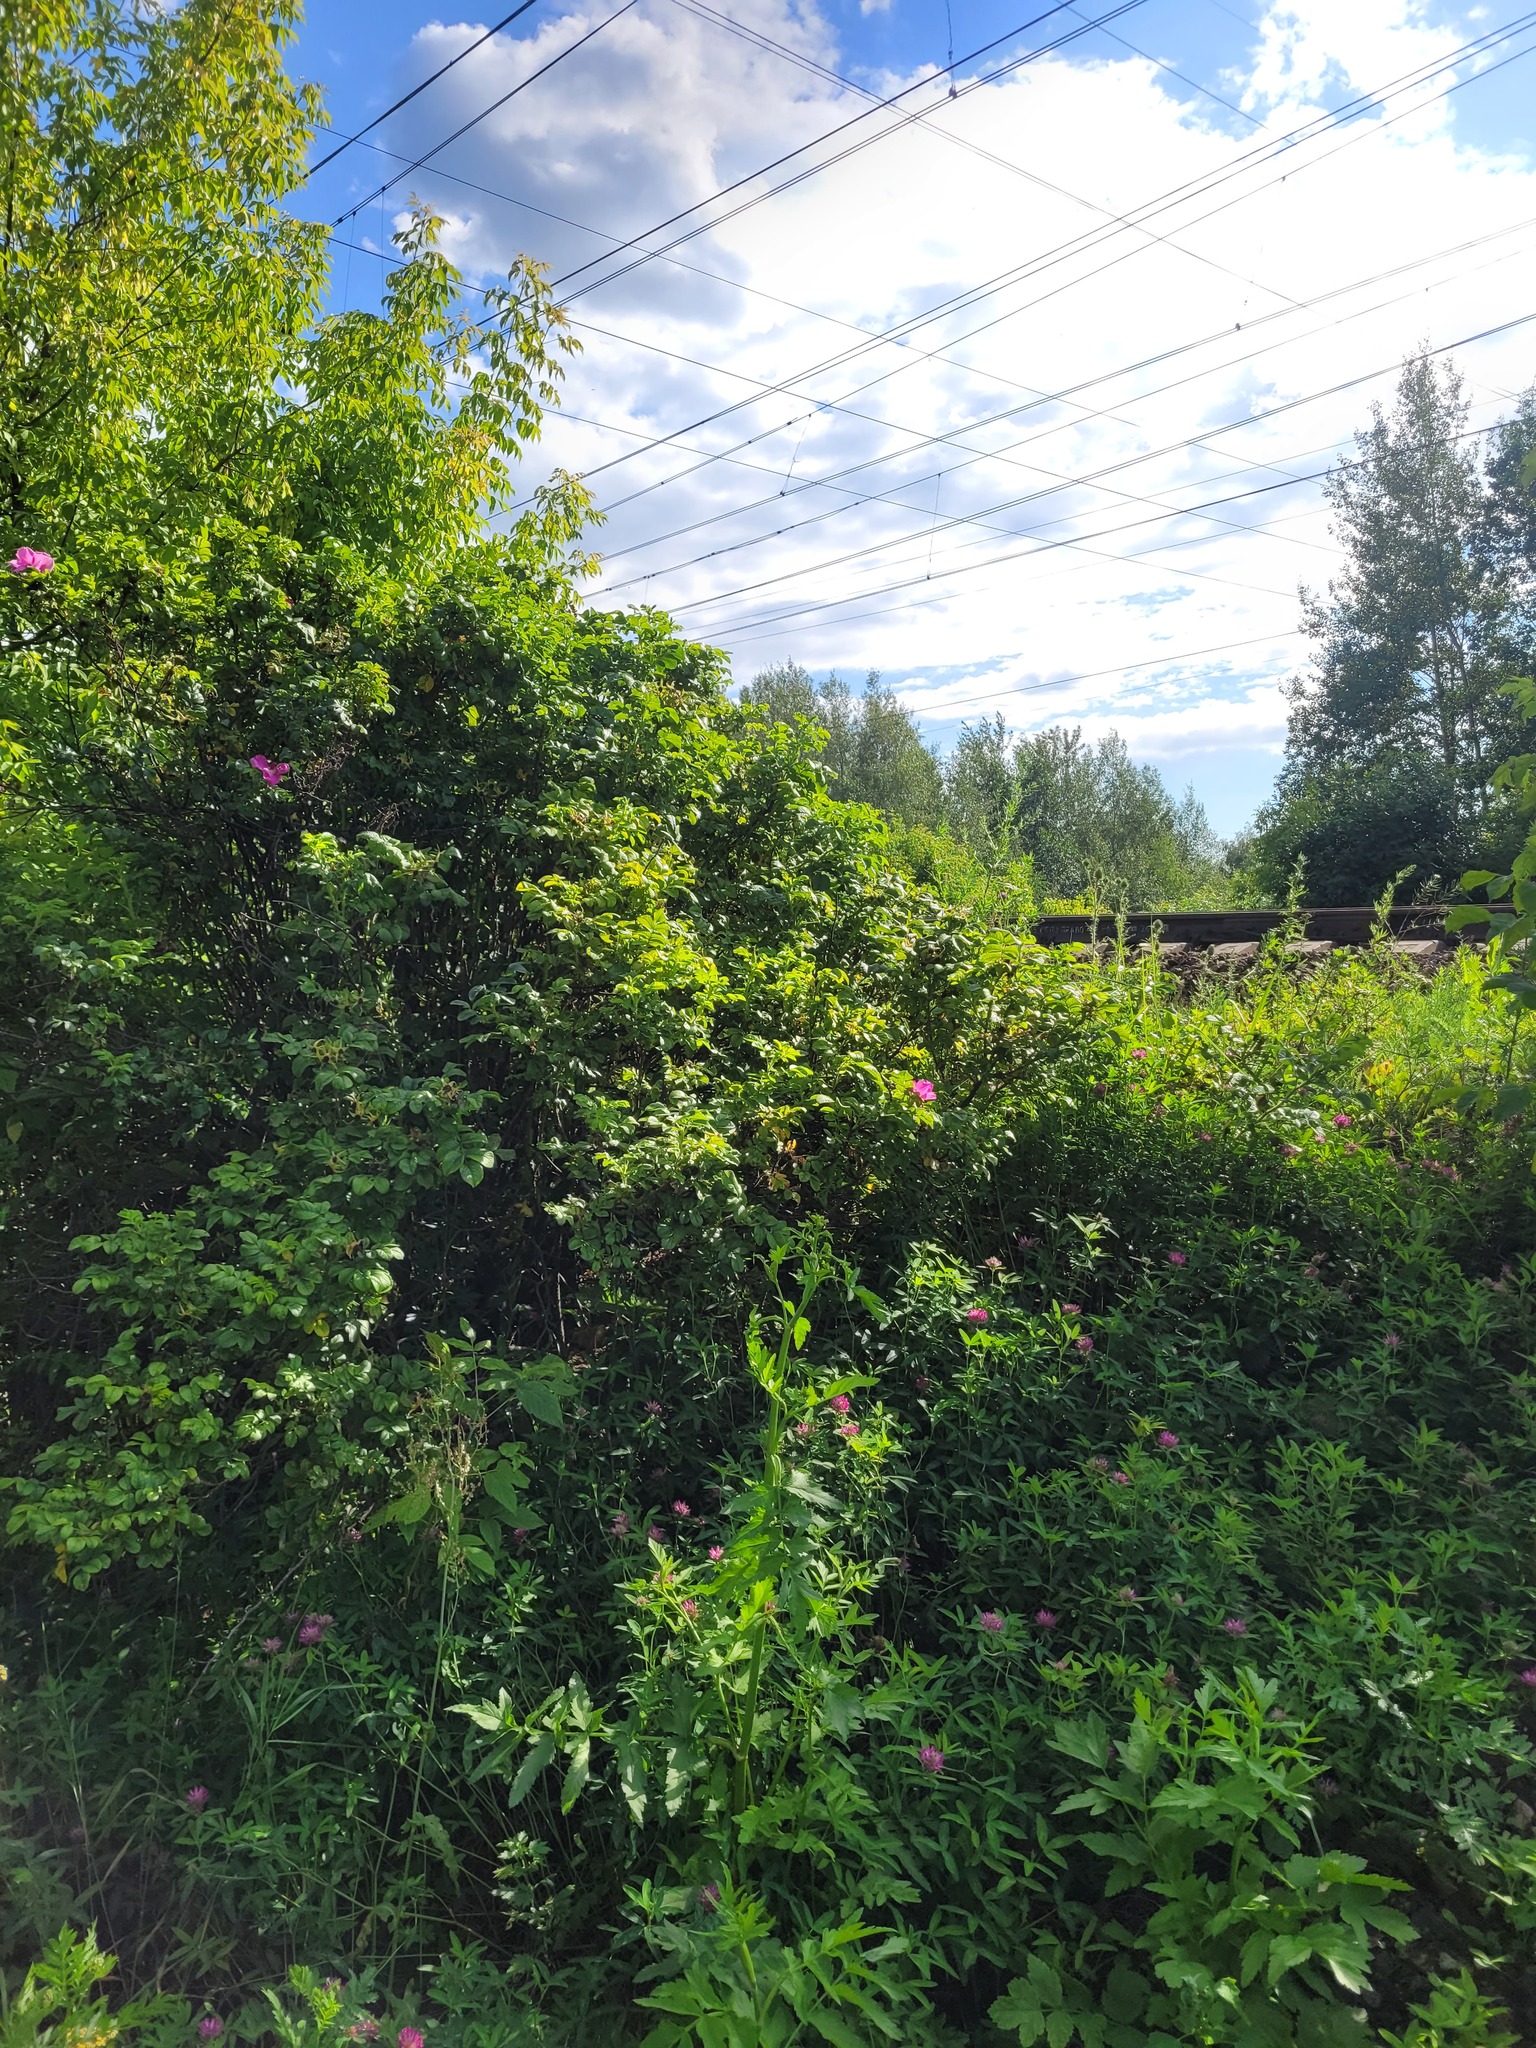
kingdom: Plantae
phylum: Tracheophyta
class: Magnoliopsida
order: Rosales
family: Rosaceae
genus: Rosa
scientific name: Rosa rugosa
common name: Japanese rose
